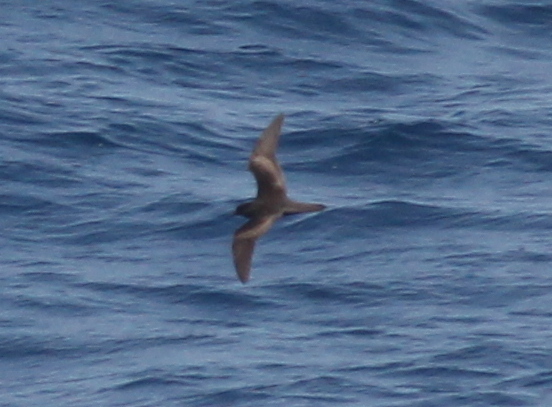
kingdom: Animalia
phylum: Chordata
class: Aves
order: Procellariiformes
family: Procellariidae
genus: Bulweria
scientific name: Bulweria bulwerii
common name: Bulwer's petrel
